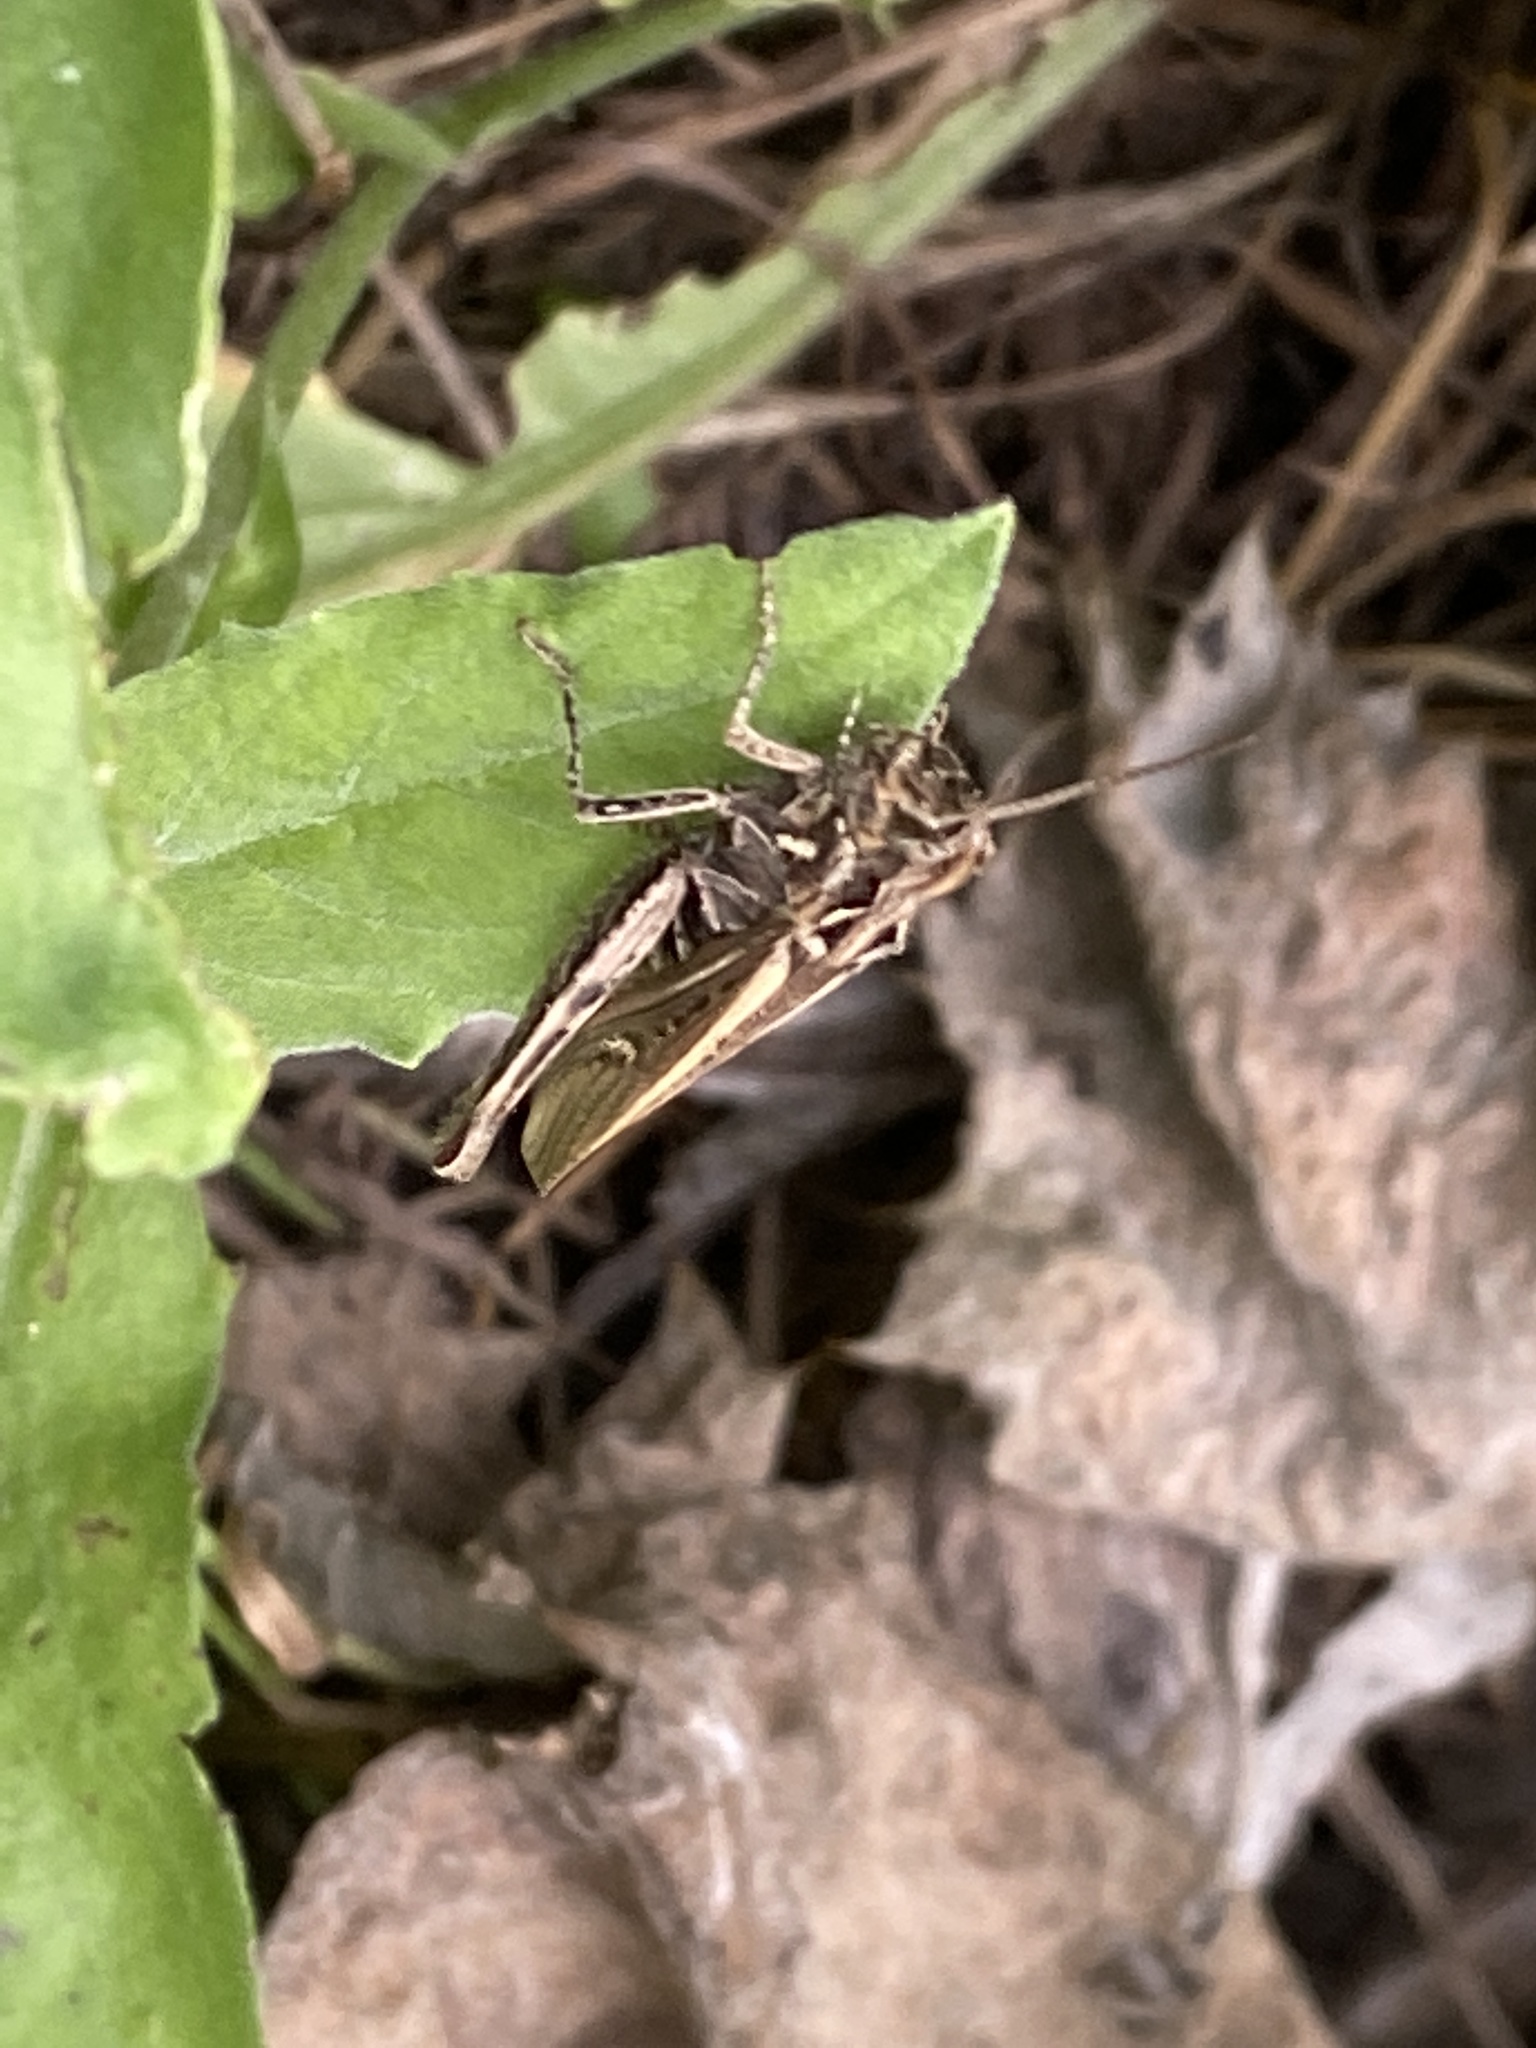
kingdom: Animalia
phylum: Arthropoda
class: Insecta
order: Orthoptera
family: Acrididae
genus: Chorthippus
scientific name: Chorthippus brunneus
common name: Field grasshopper
